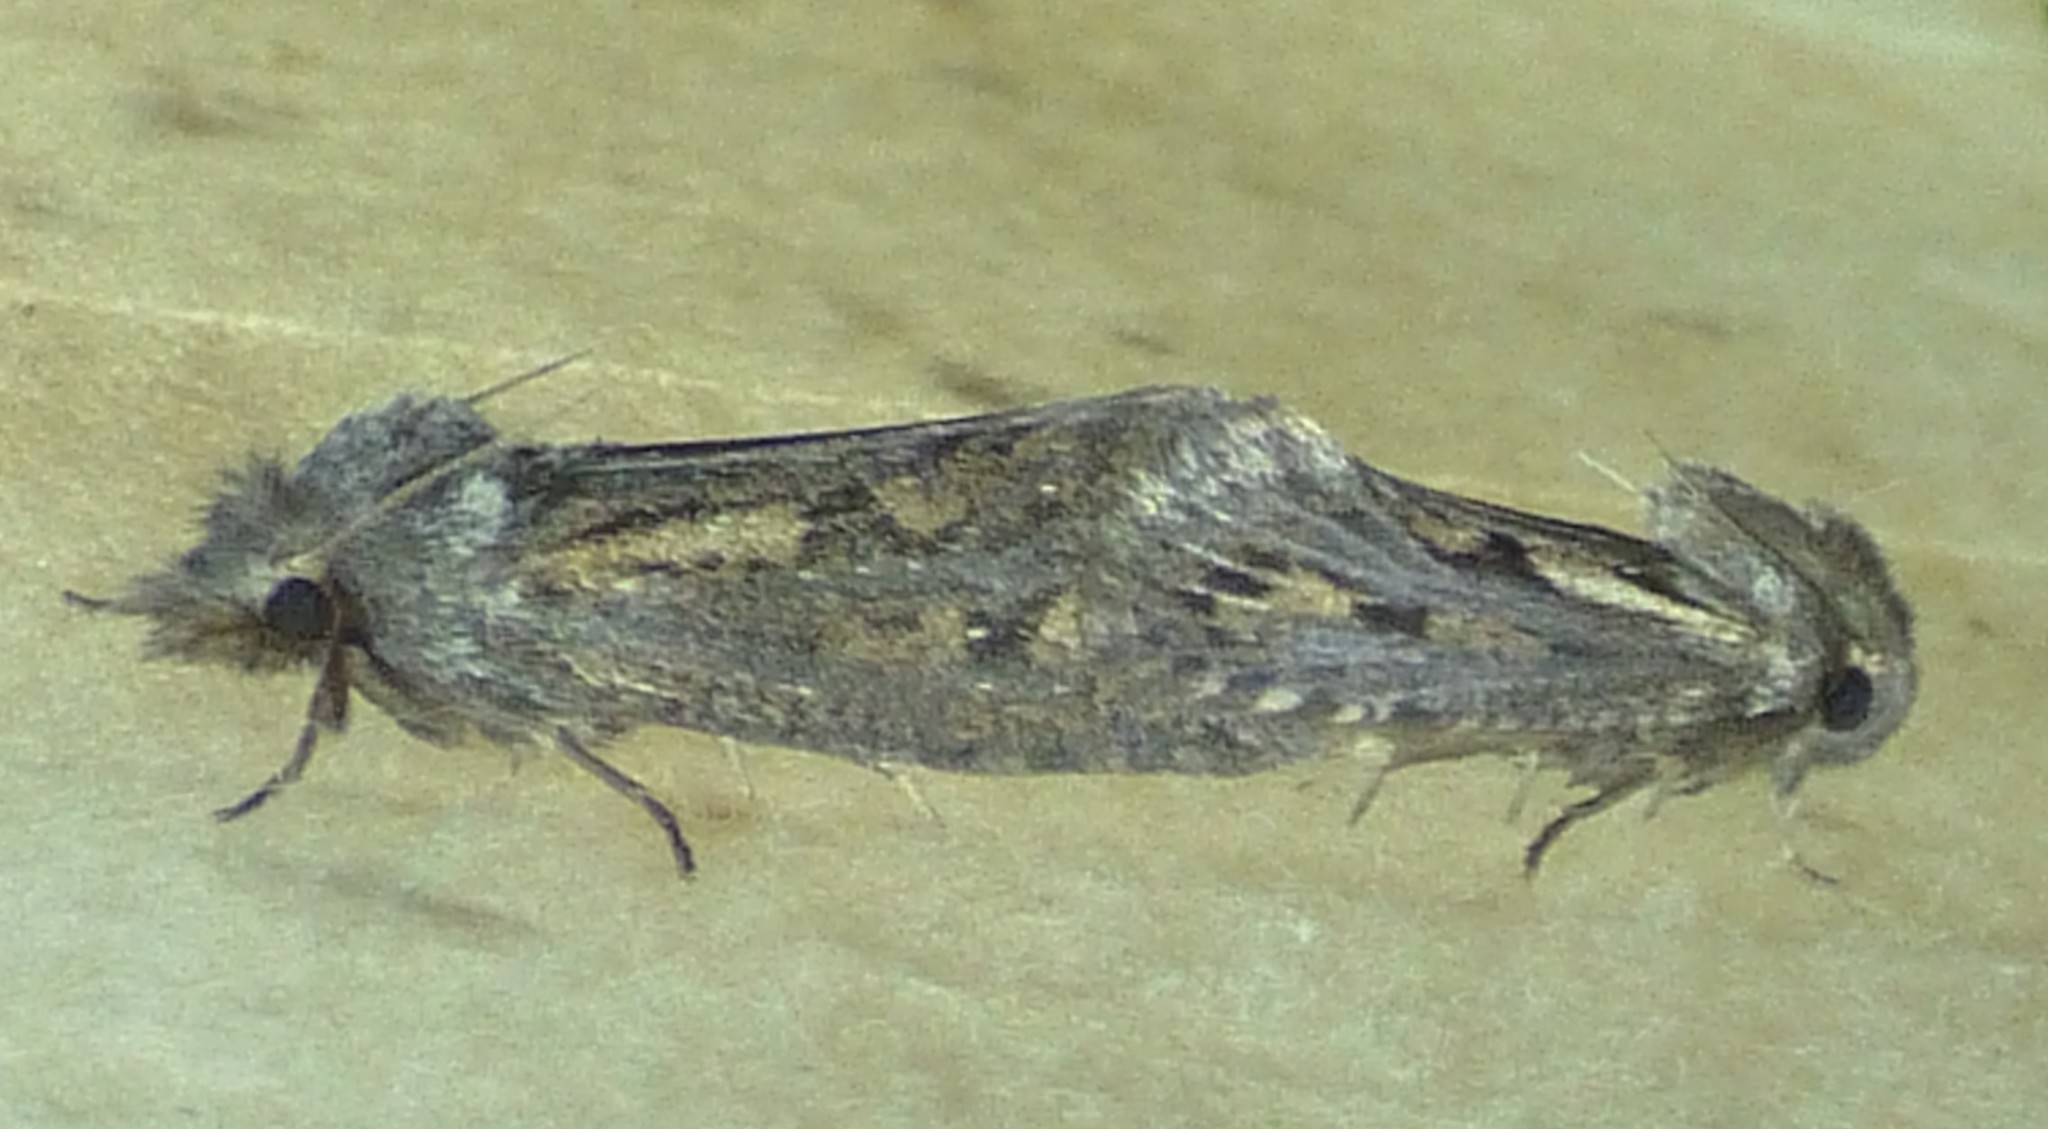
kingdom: Animalia
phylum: Arthropoda
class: Insecta
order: Lepidoptera
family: Tineidae
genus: Acrolophus
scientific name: Acrolophus popeanella
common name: Clemens' grass tubeworm moth
